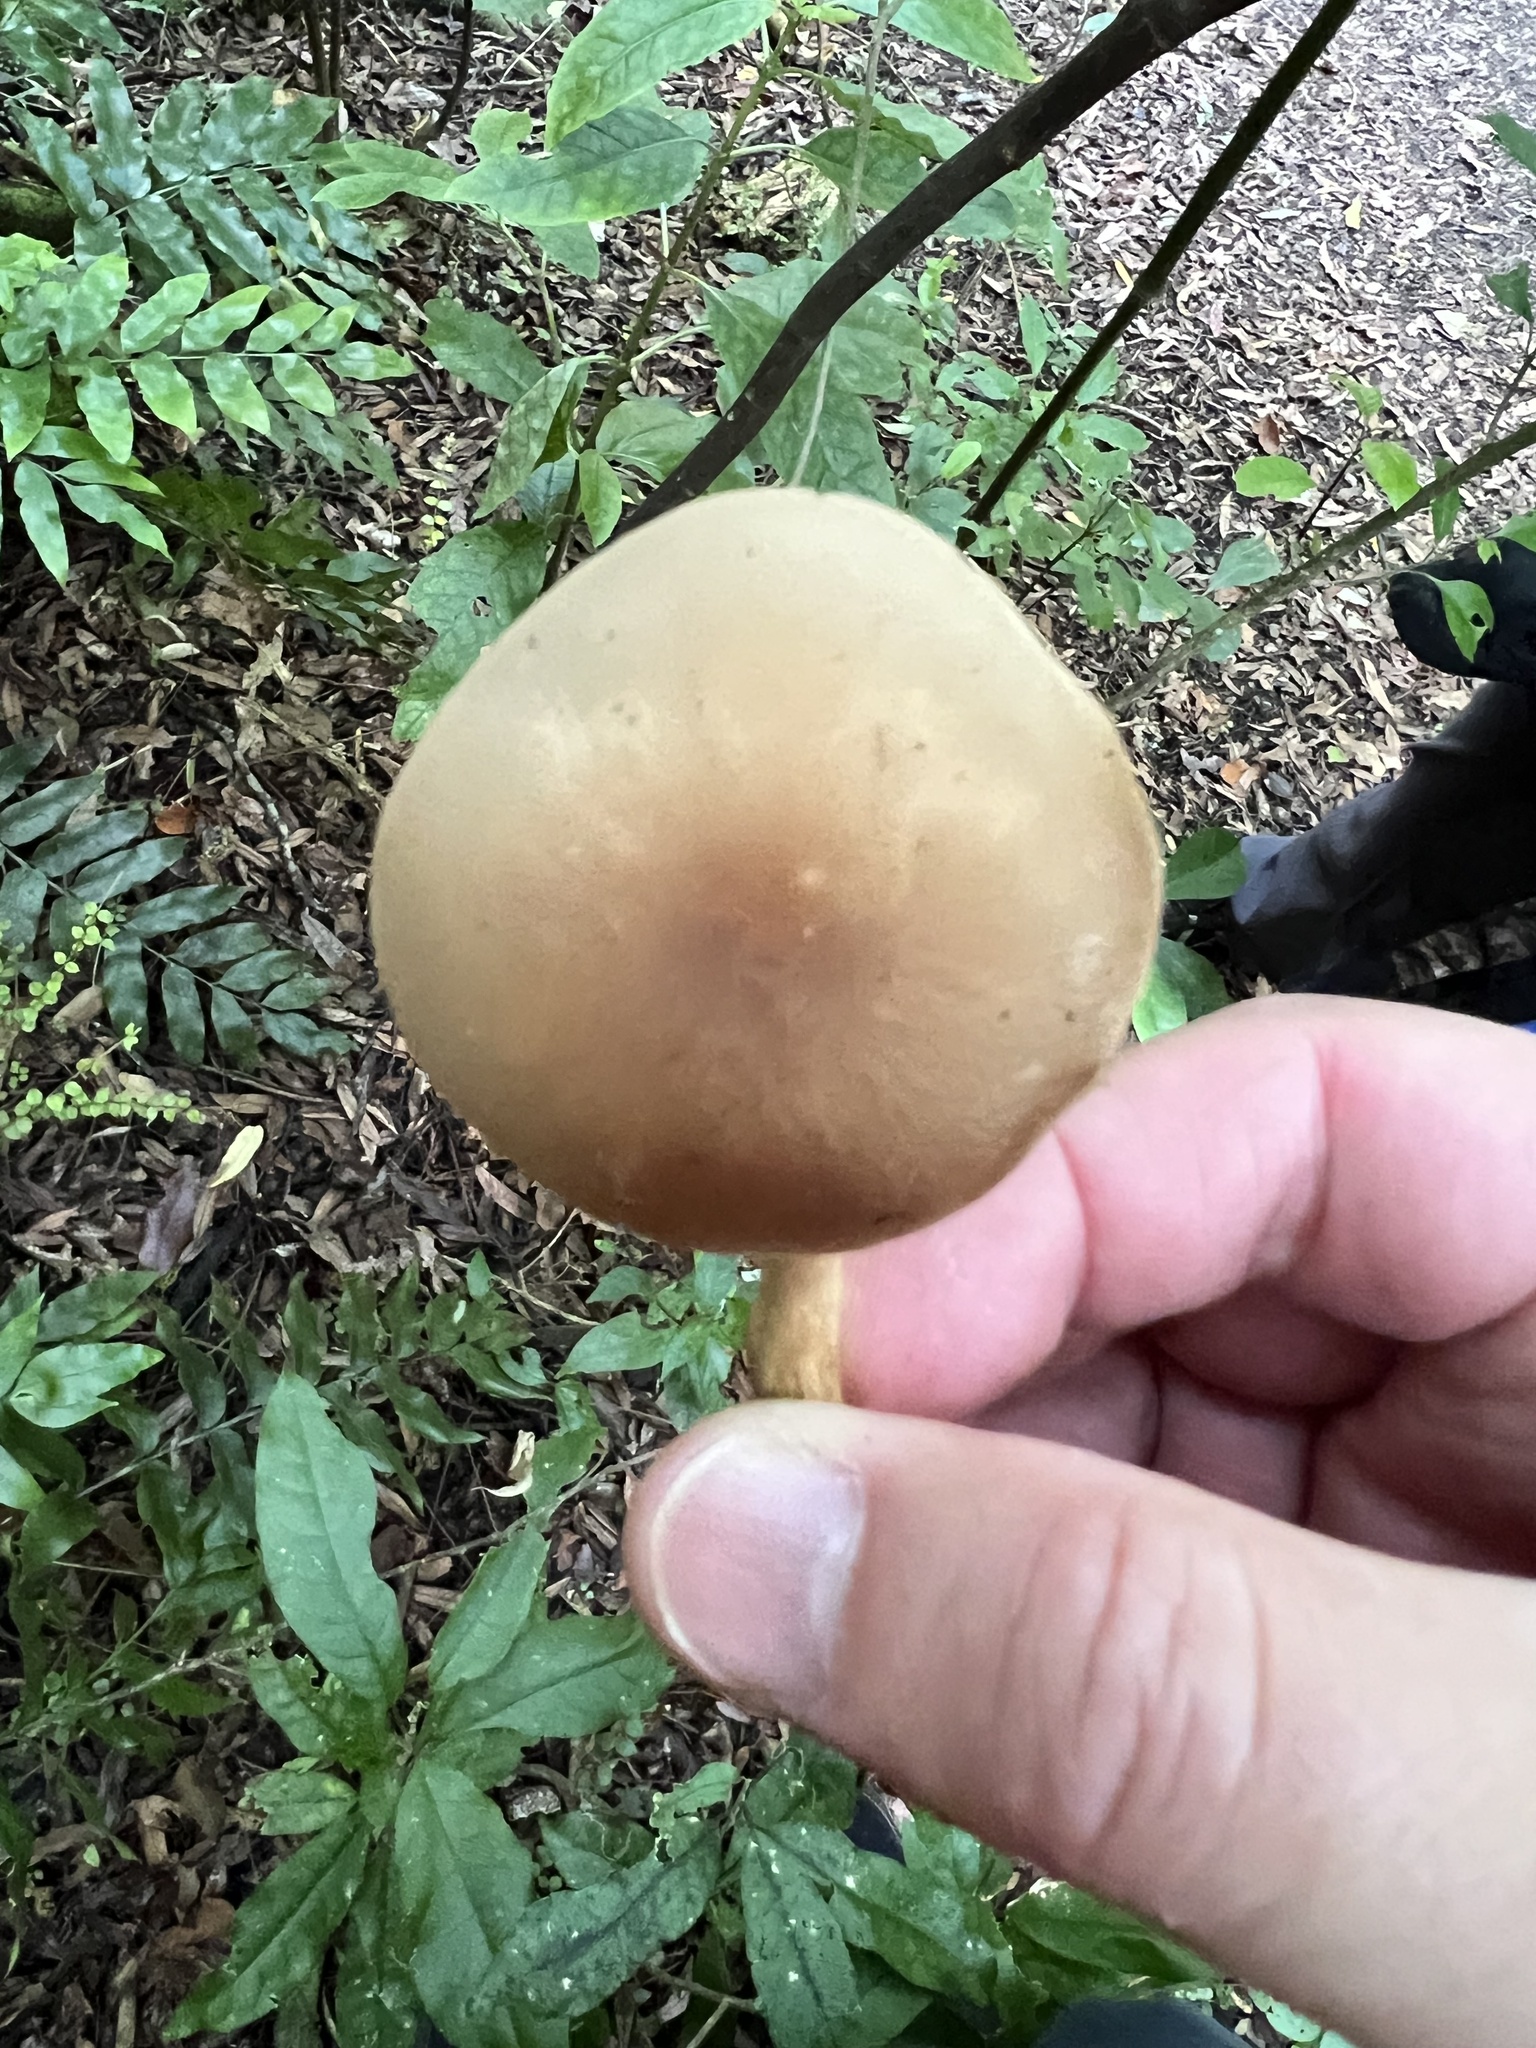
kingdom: Fungi
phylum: Basidiomycota
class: Agaricomycetes
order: Agaricales
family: Tubariaceae
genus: Cyclocybe
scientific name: Cyclocybe parasitica
